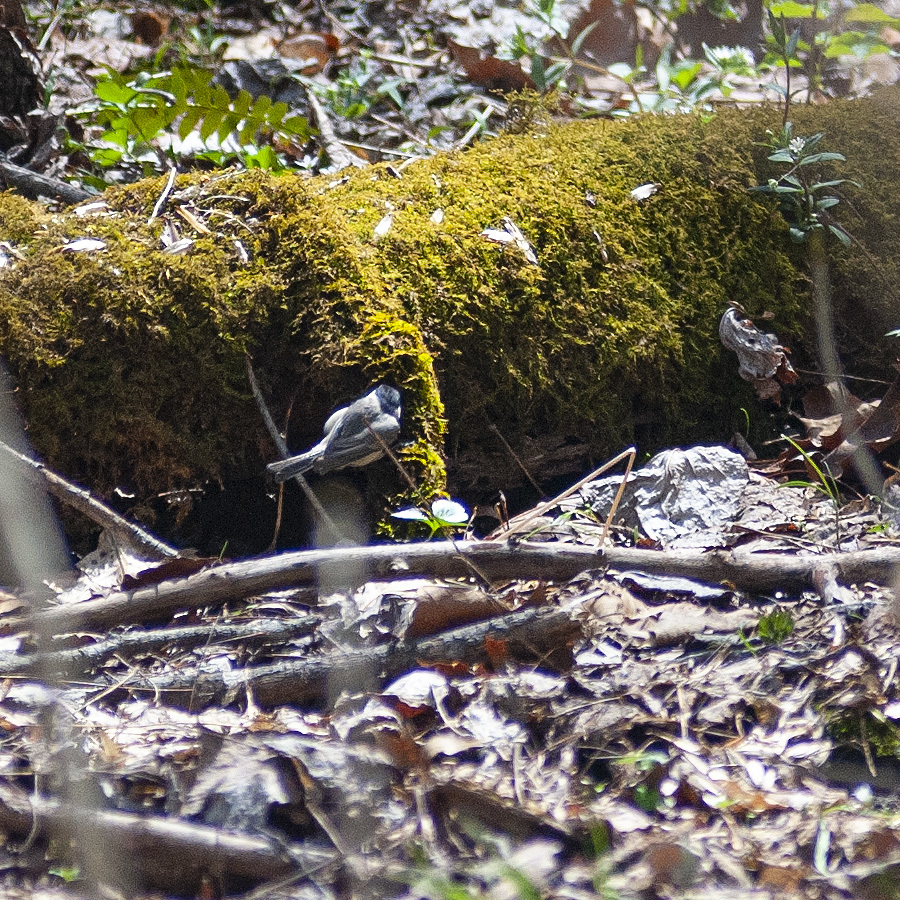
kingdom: Animalia
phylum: Chordata
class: Aves
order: Passeriformes
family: Paridae
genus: Poecile
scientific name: Poecile carolinensis
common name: Carolina chickadee
